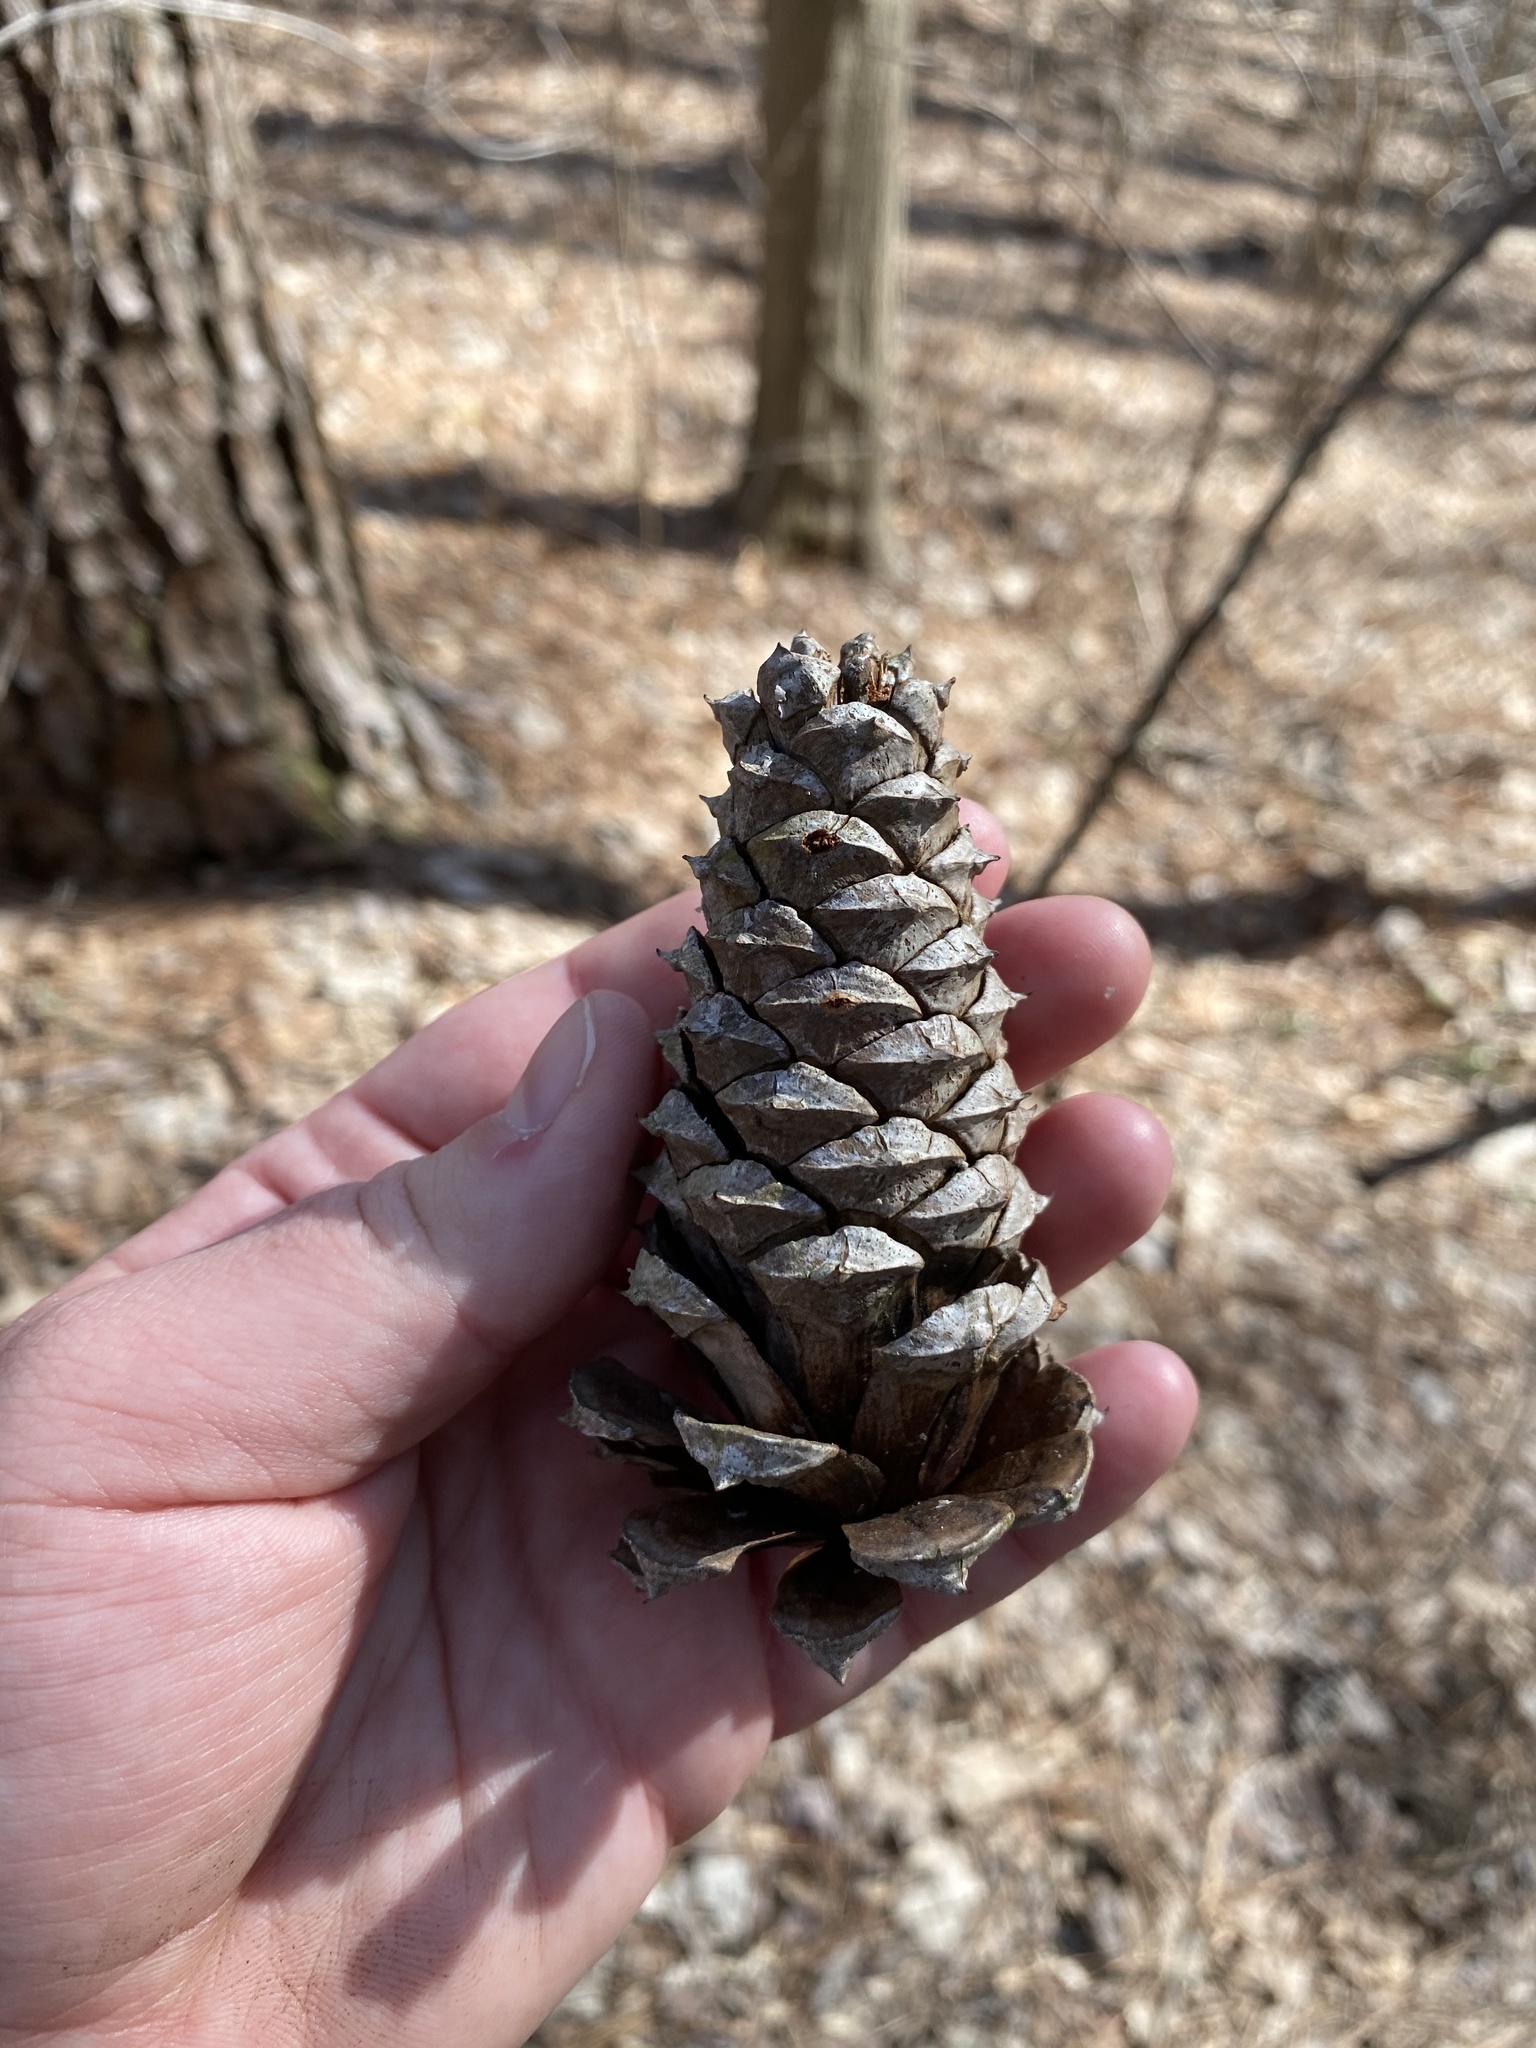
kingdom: Plantae
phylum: Tracheophyta
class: Pinopsida
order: Pinales
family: Pinaceae
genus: Pinus
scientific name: Pinus taeda
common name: Loblolly pine
